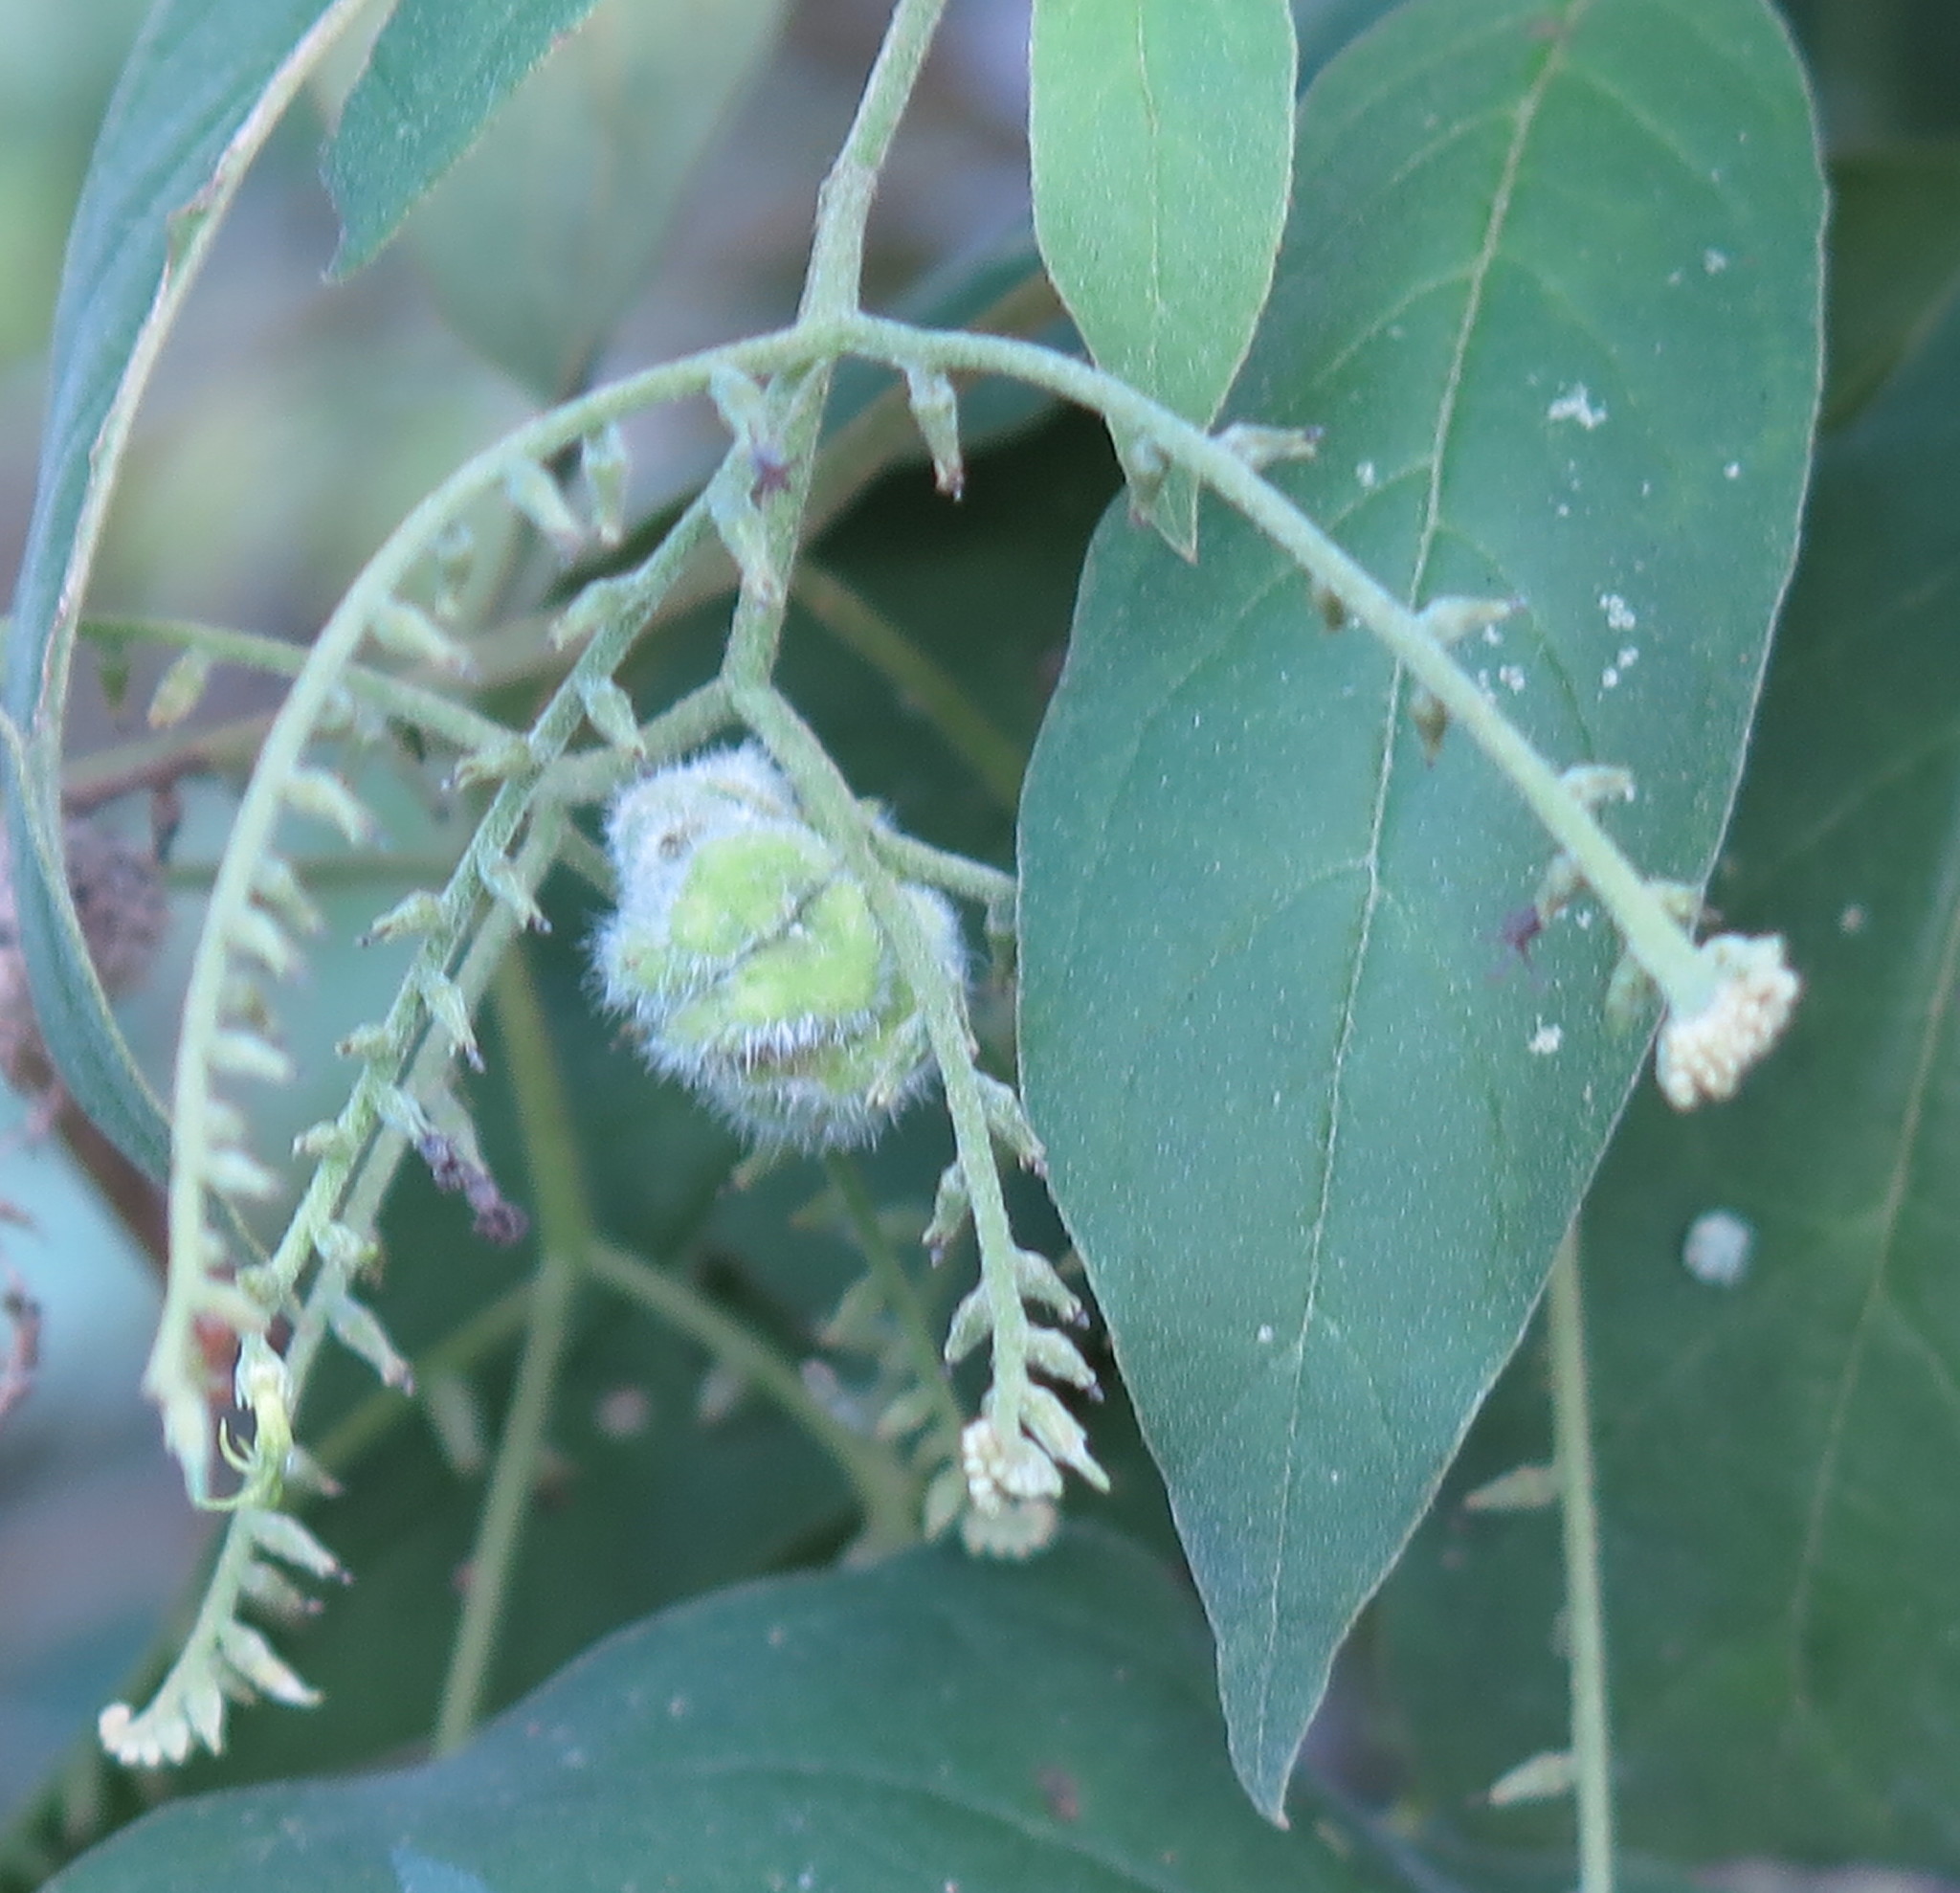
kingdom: Plantae
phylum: Tracheophyta
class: Magnoliopsida
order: Boraginales
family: Heliotropiaceae
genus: Myriopus
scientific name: Myriopus salzmannii
